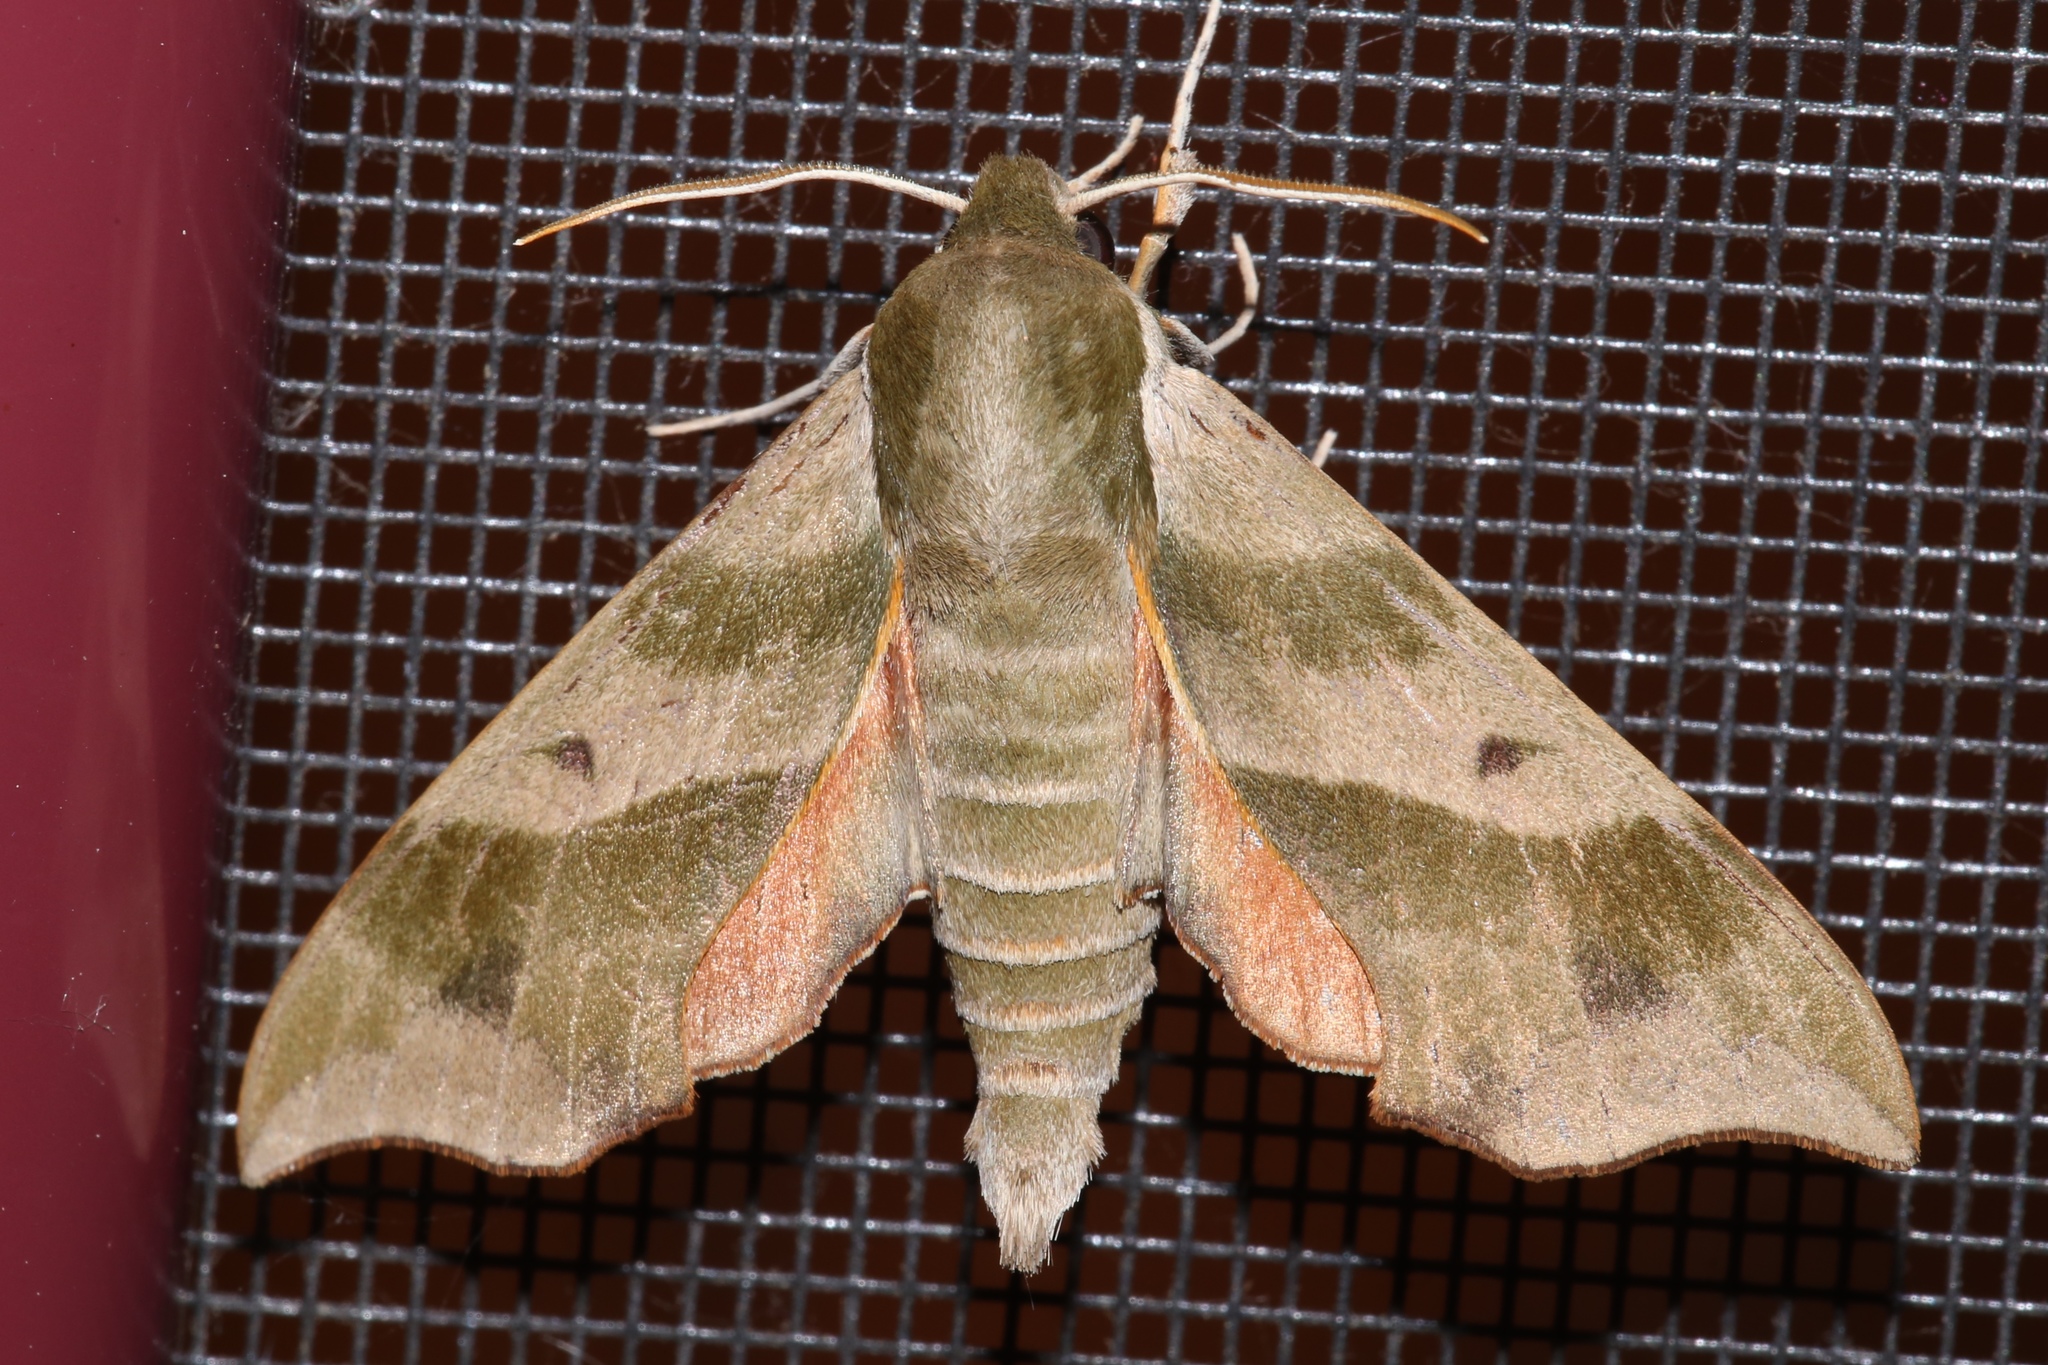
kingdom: Animalia
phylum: Arthropoda
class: Insecta
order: Lepidoptera
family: Sphingidae
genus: Darapsa
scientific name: Darapsa myron
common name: Hog sphinx
